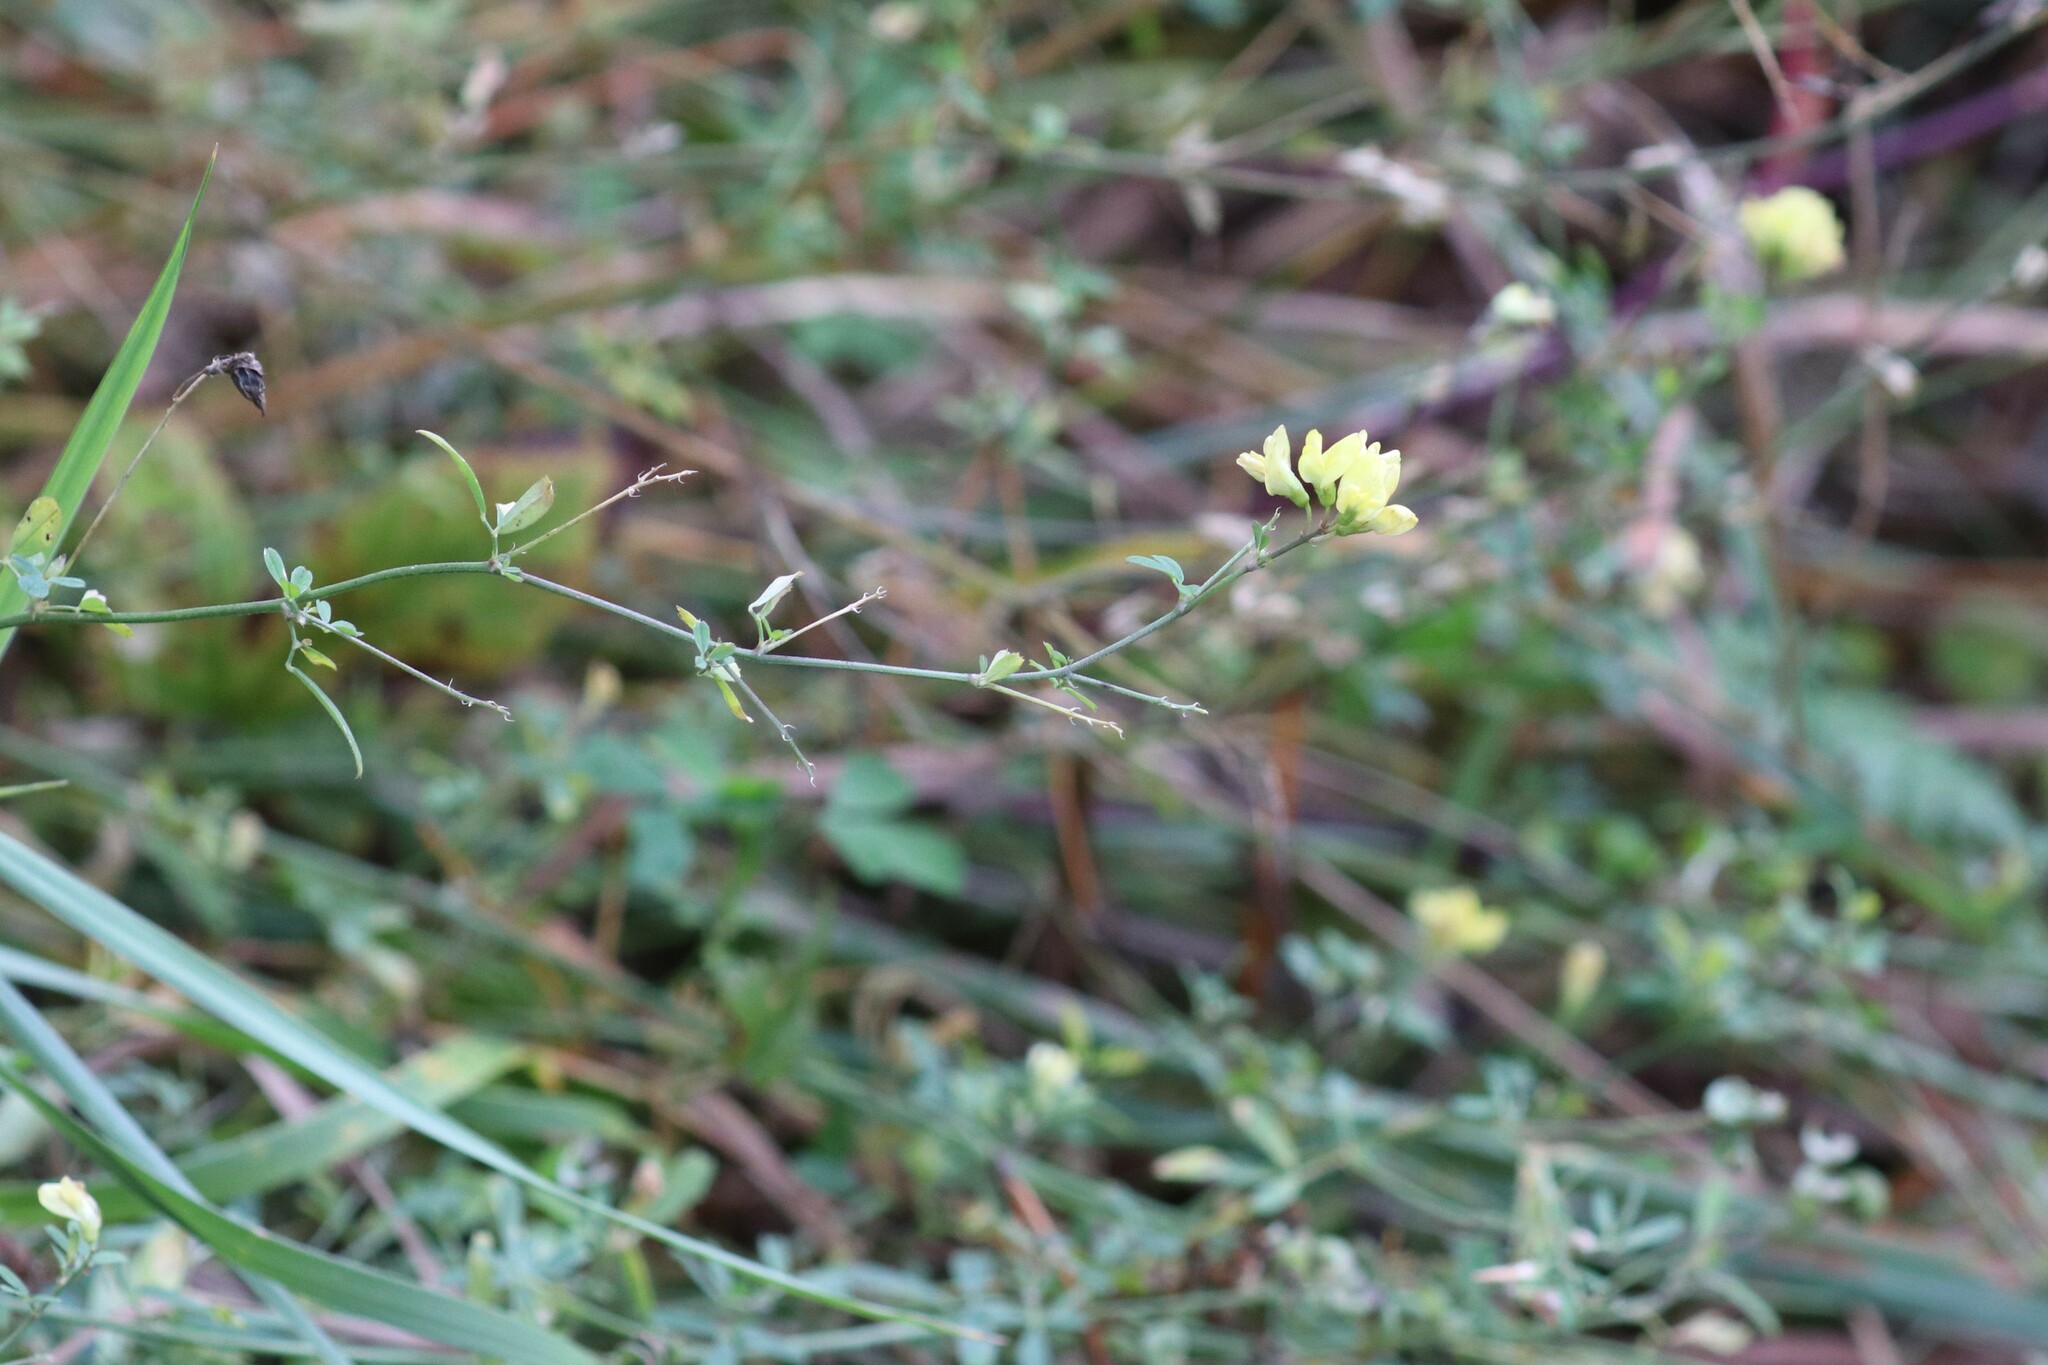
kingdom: Plantae
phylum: Tracheophyta
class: Magnoliopsida
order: Fabales
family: Fabaceae
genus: Medicago
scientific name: Medicago varia
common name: Sand lucerne
